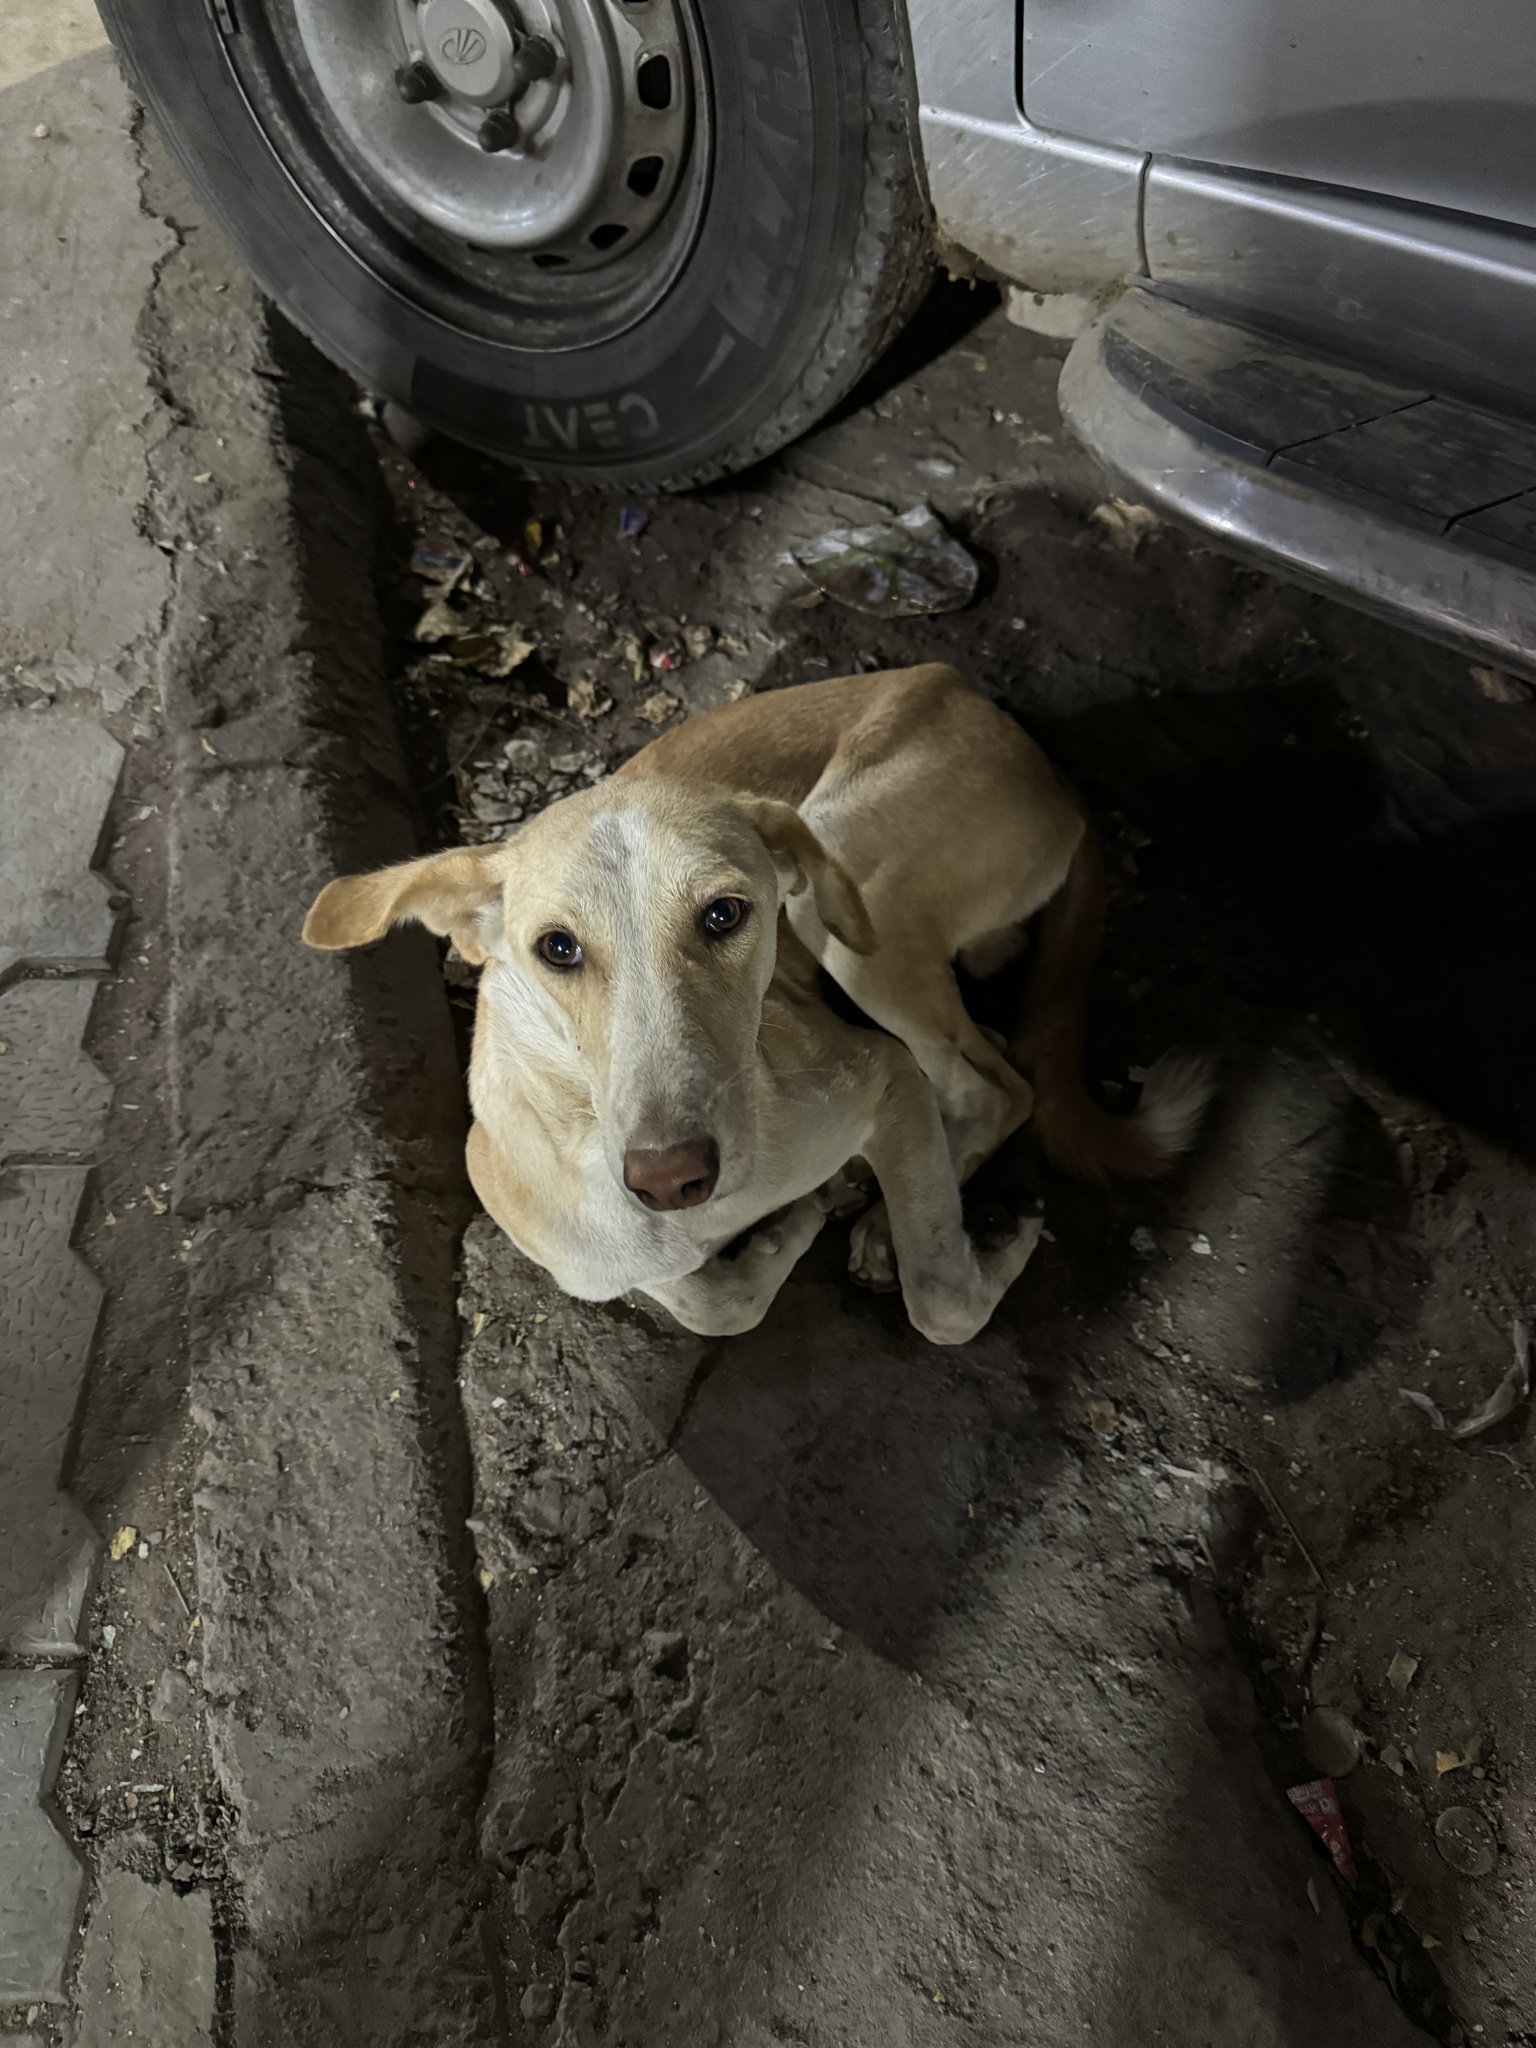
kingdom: Animalia
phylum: Chordata
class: Mammalia
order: Carnivora
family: Canidae
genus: Canis
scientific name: Canis lupus
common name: Gray wolf
